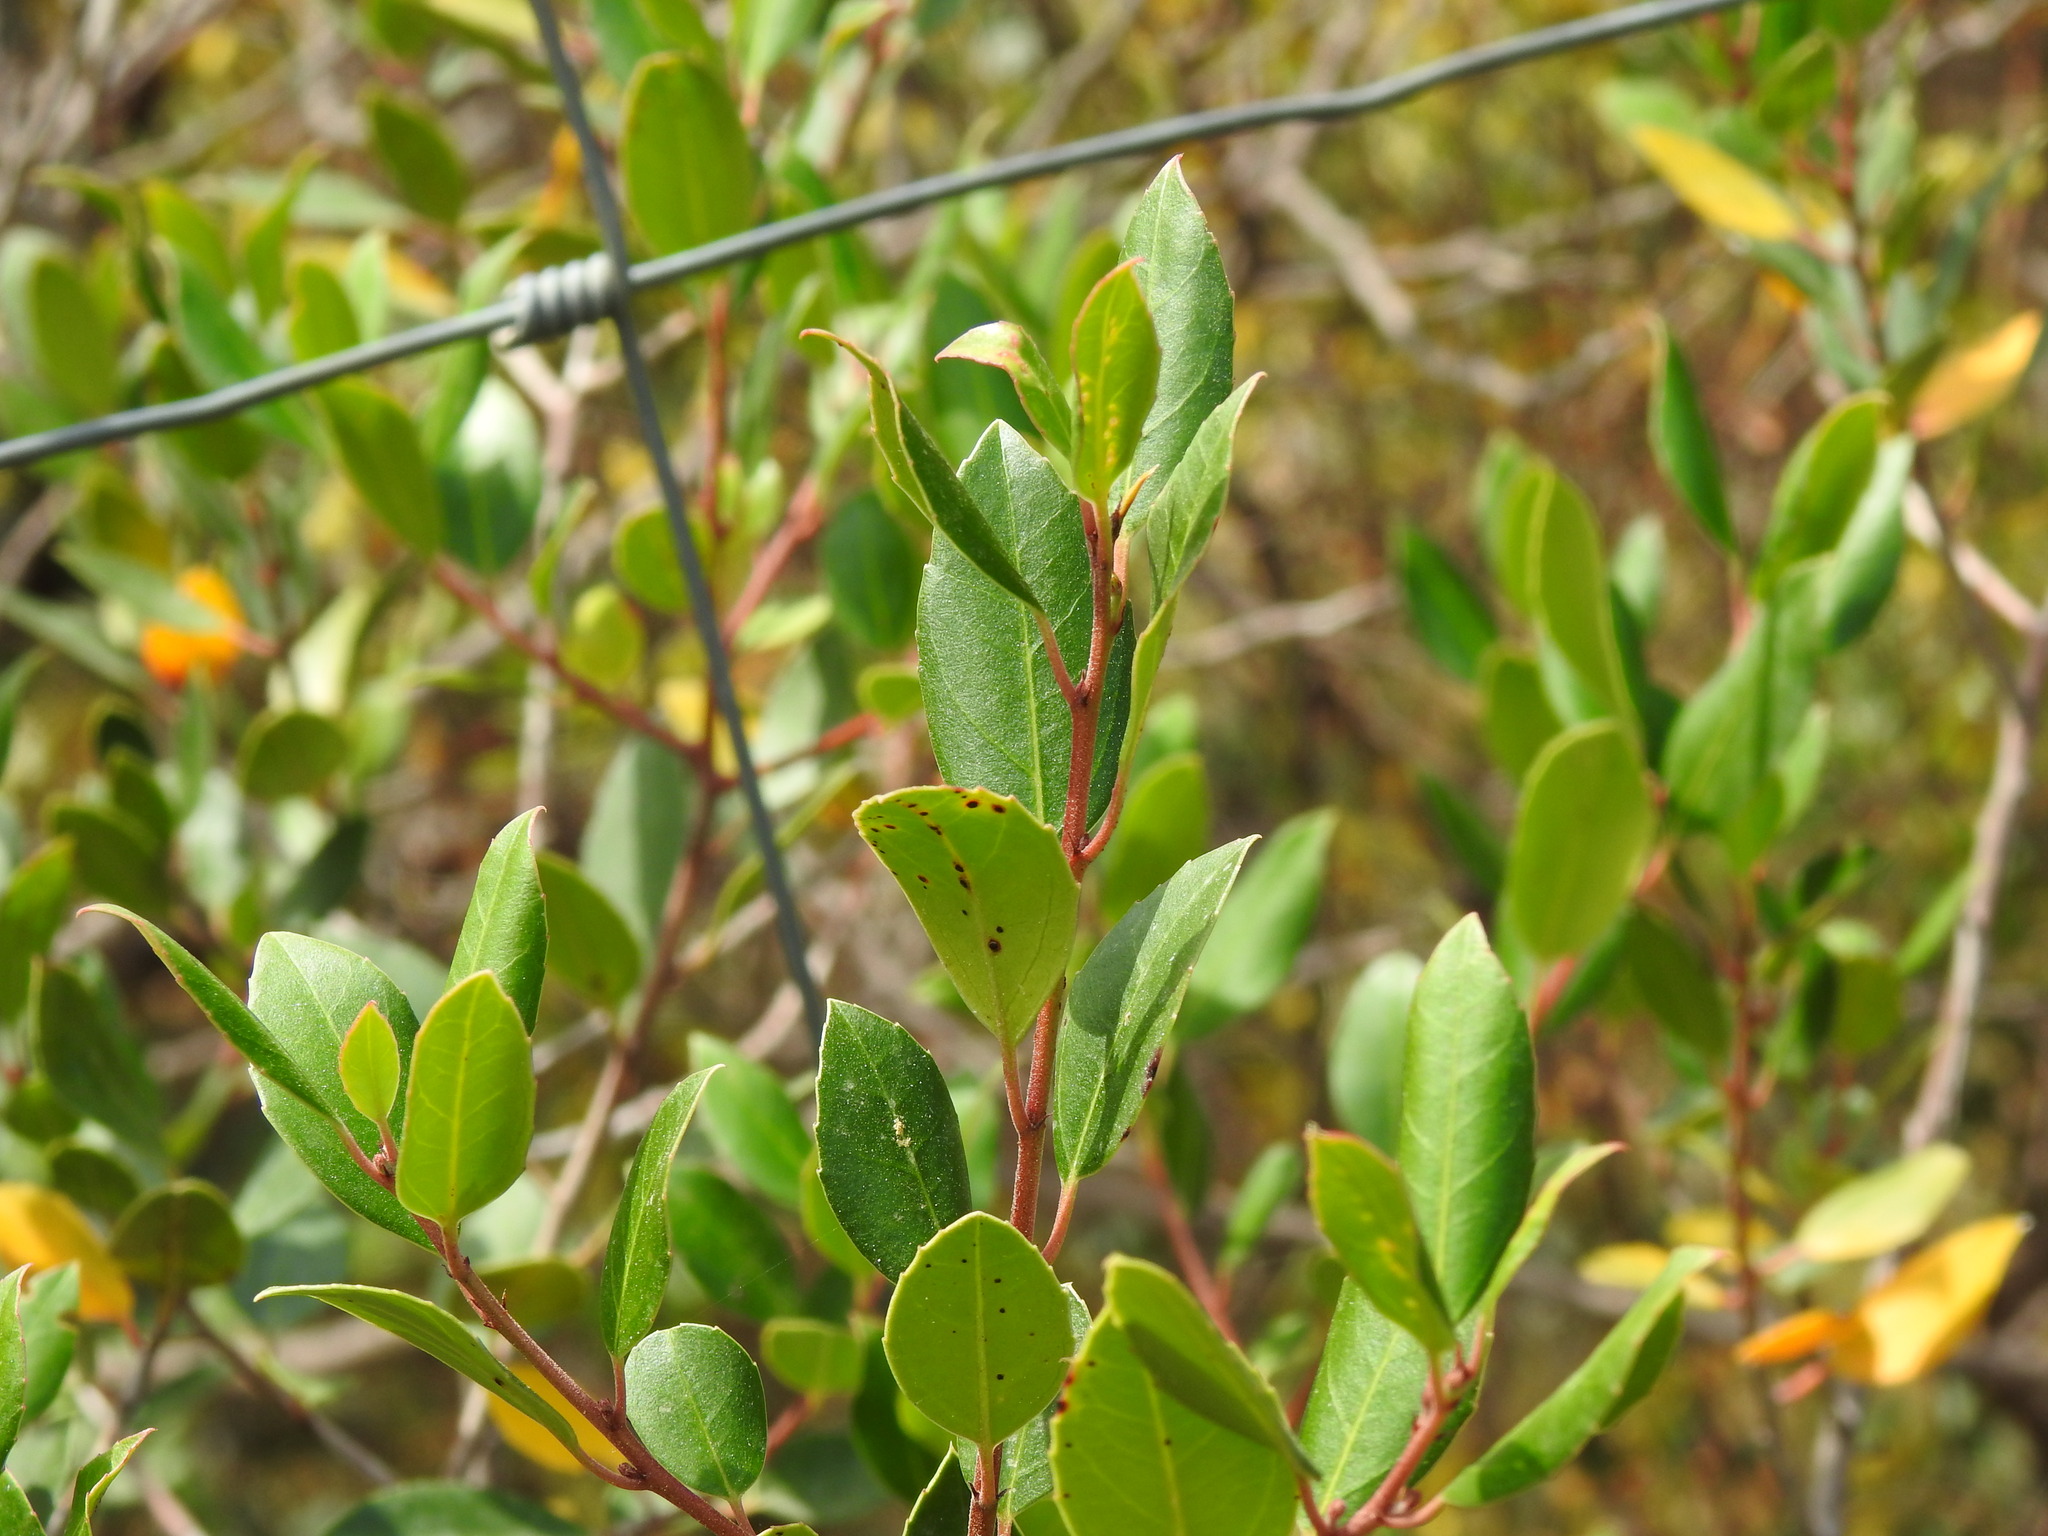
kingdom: Plantae
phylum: Tracheophyta
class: Magnoliopsida
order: Rosales
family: Rhamnaceae
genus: Rhamnus
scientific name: Rhamnus alaternus
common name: Mediterranean buckthorn
